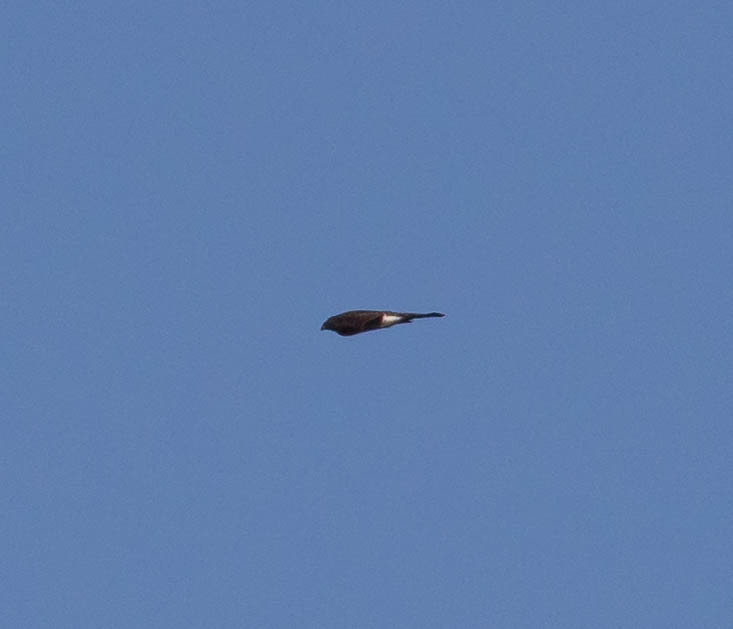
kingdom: Animalia
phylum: Chordata
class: Aves
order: Accipitriformes
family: Accipitridae
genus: Accipiter
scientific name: Accipiter striatus
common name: Sharp-shinned hawk
